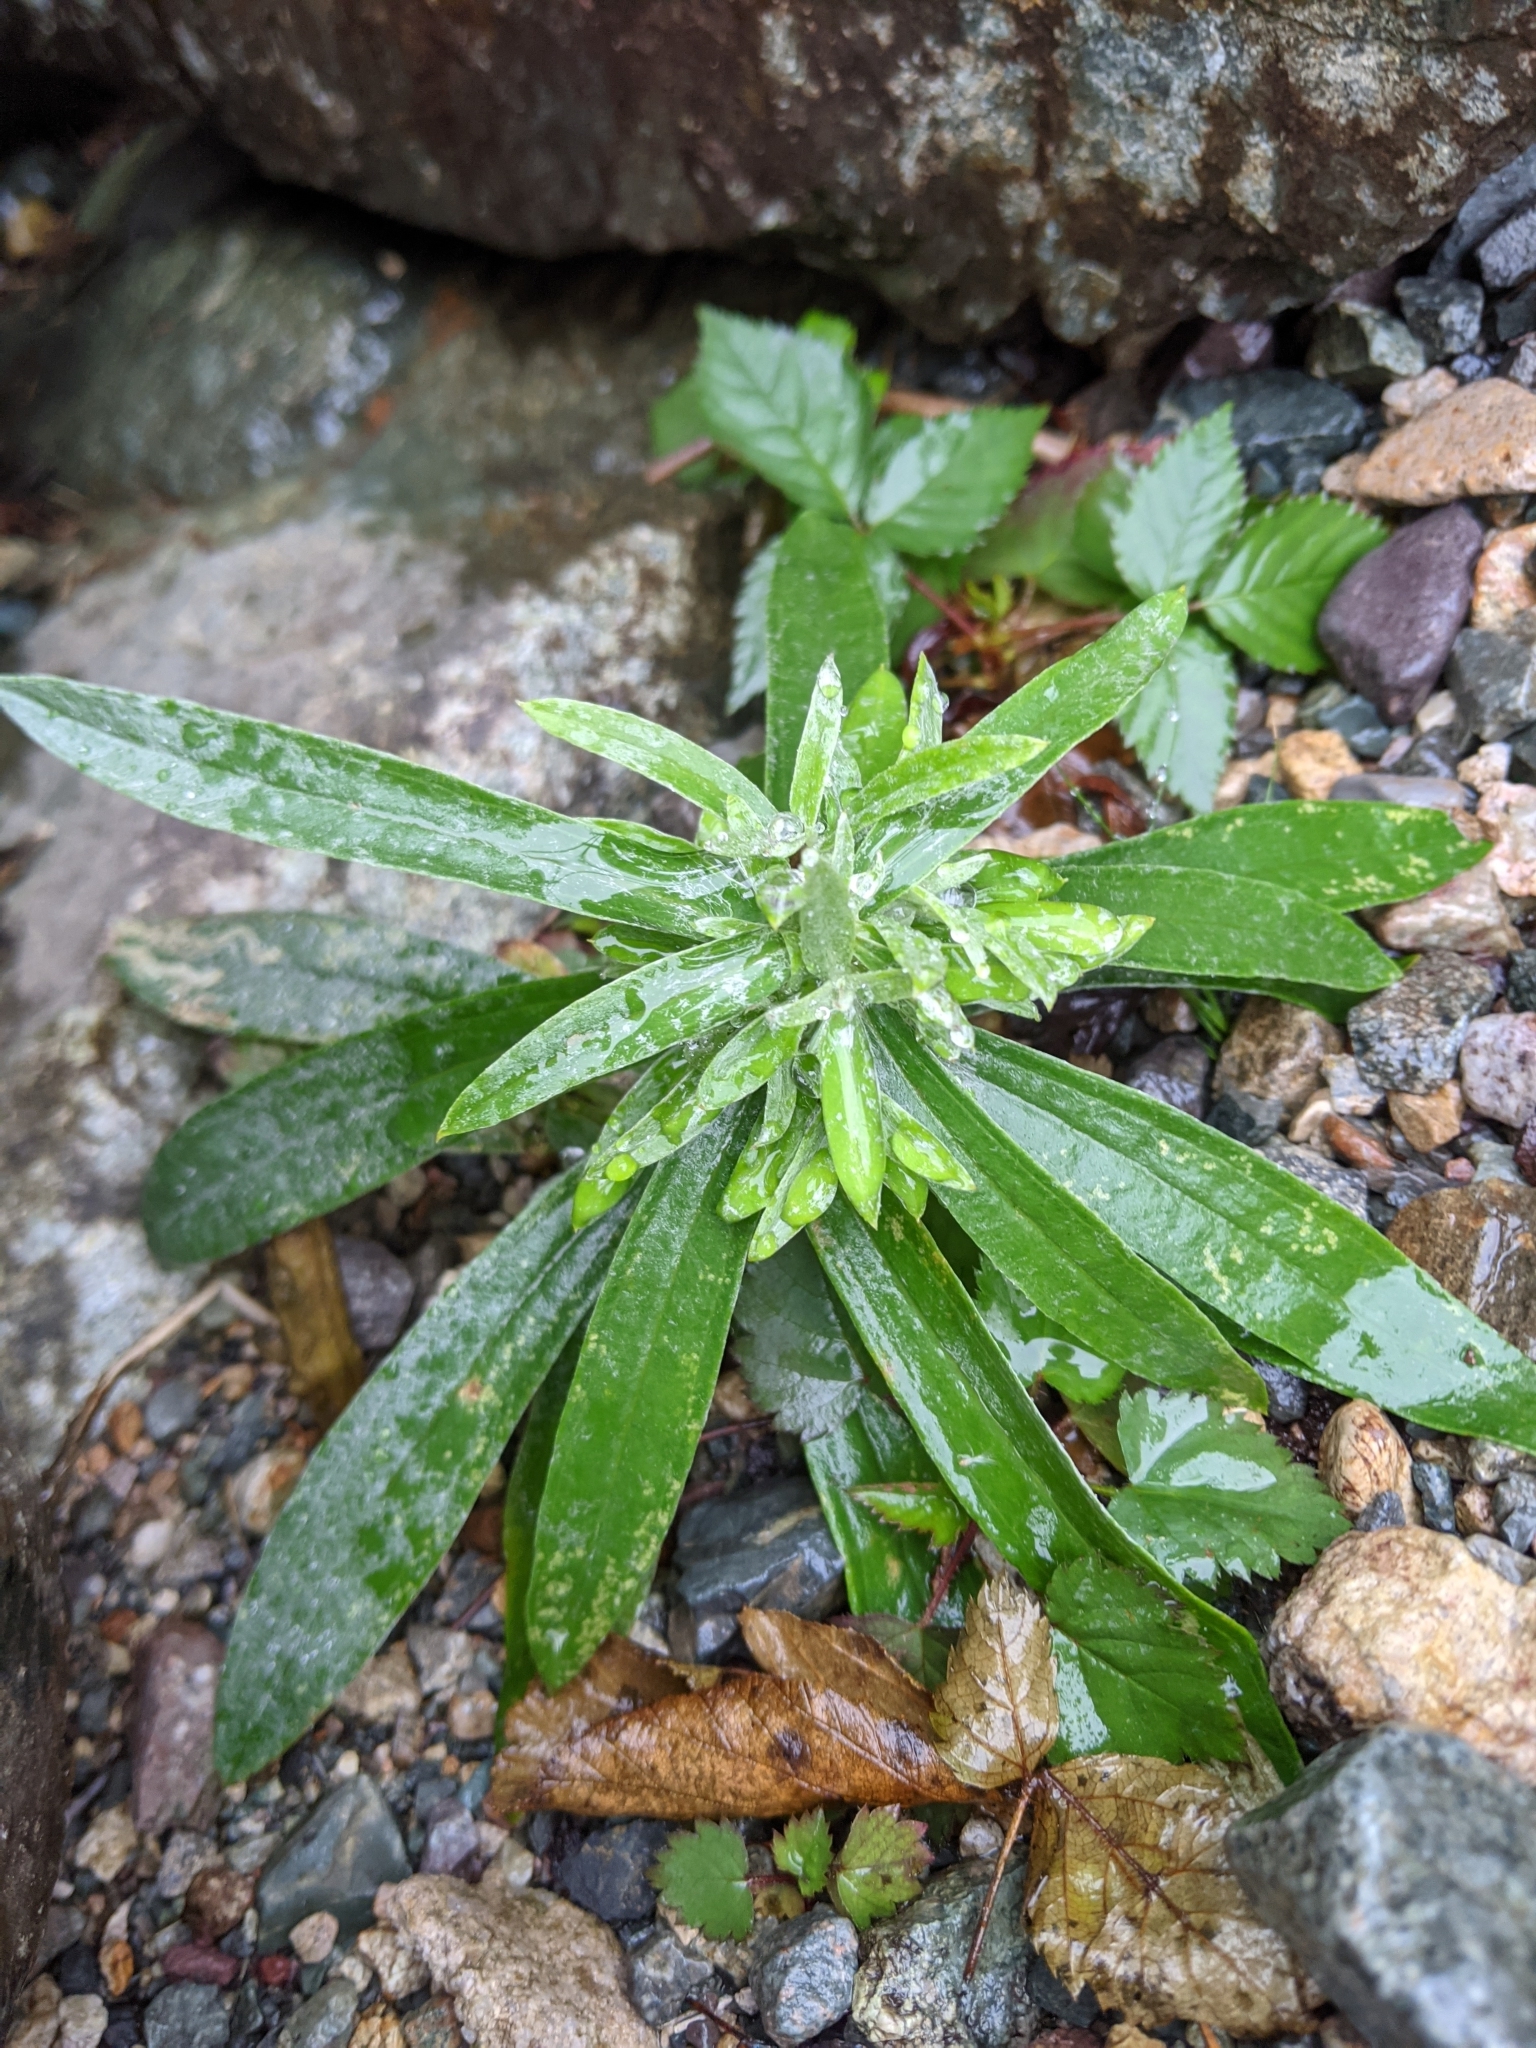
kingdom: Plantae
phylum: Tracheophyta
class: Magnoliopsida
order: Asterales
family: Asteraceae
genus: Anaphalis
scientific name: Anaphalis margaritacea
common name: Pearly everlasting
